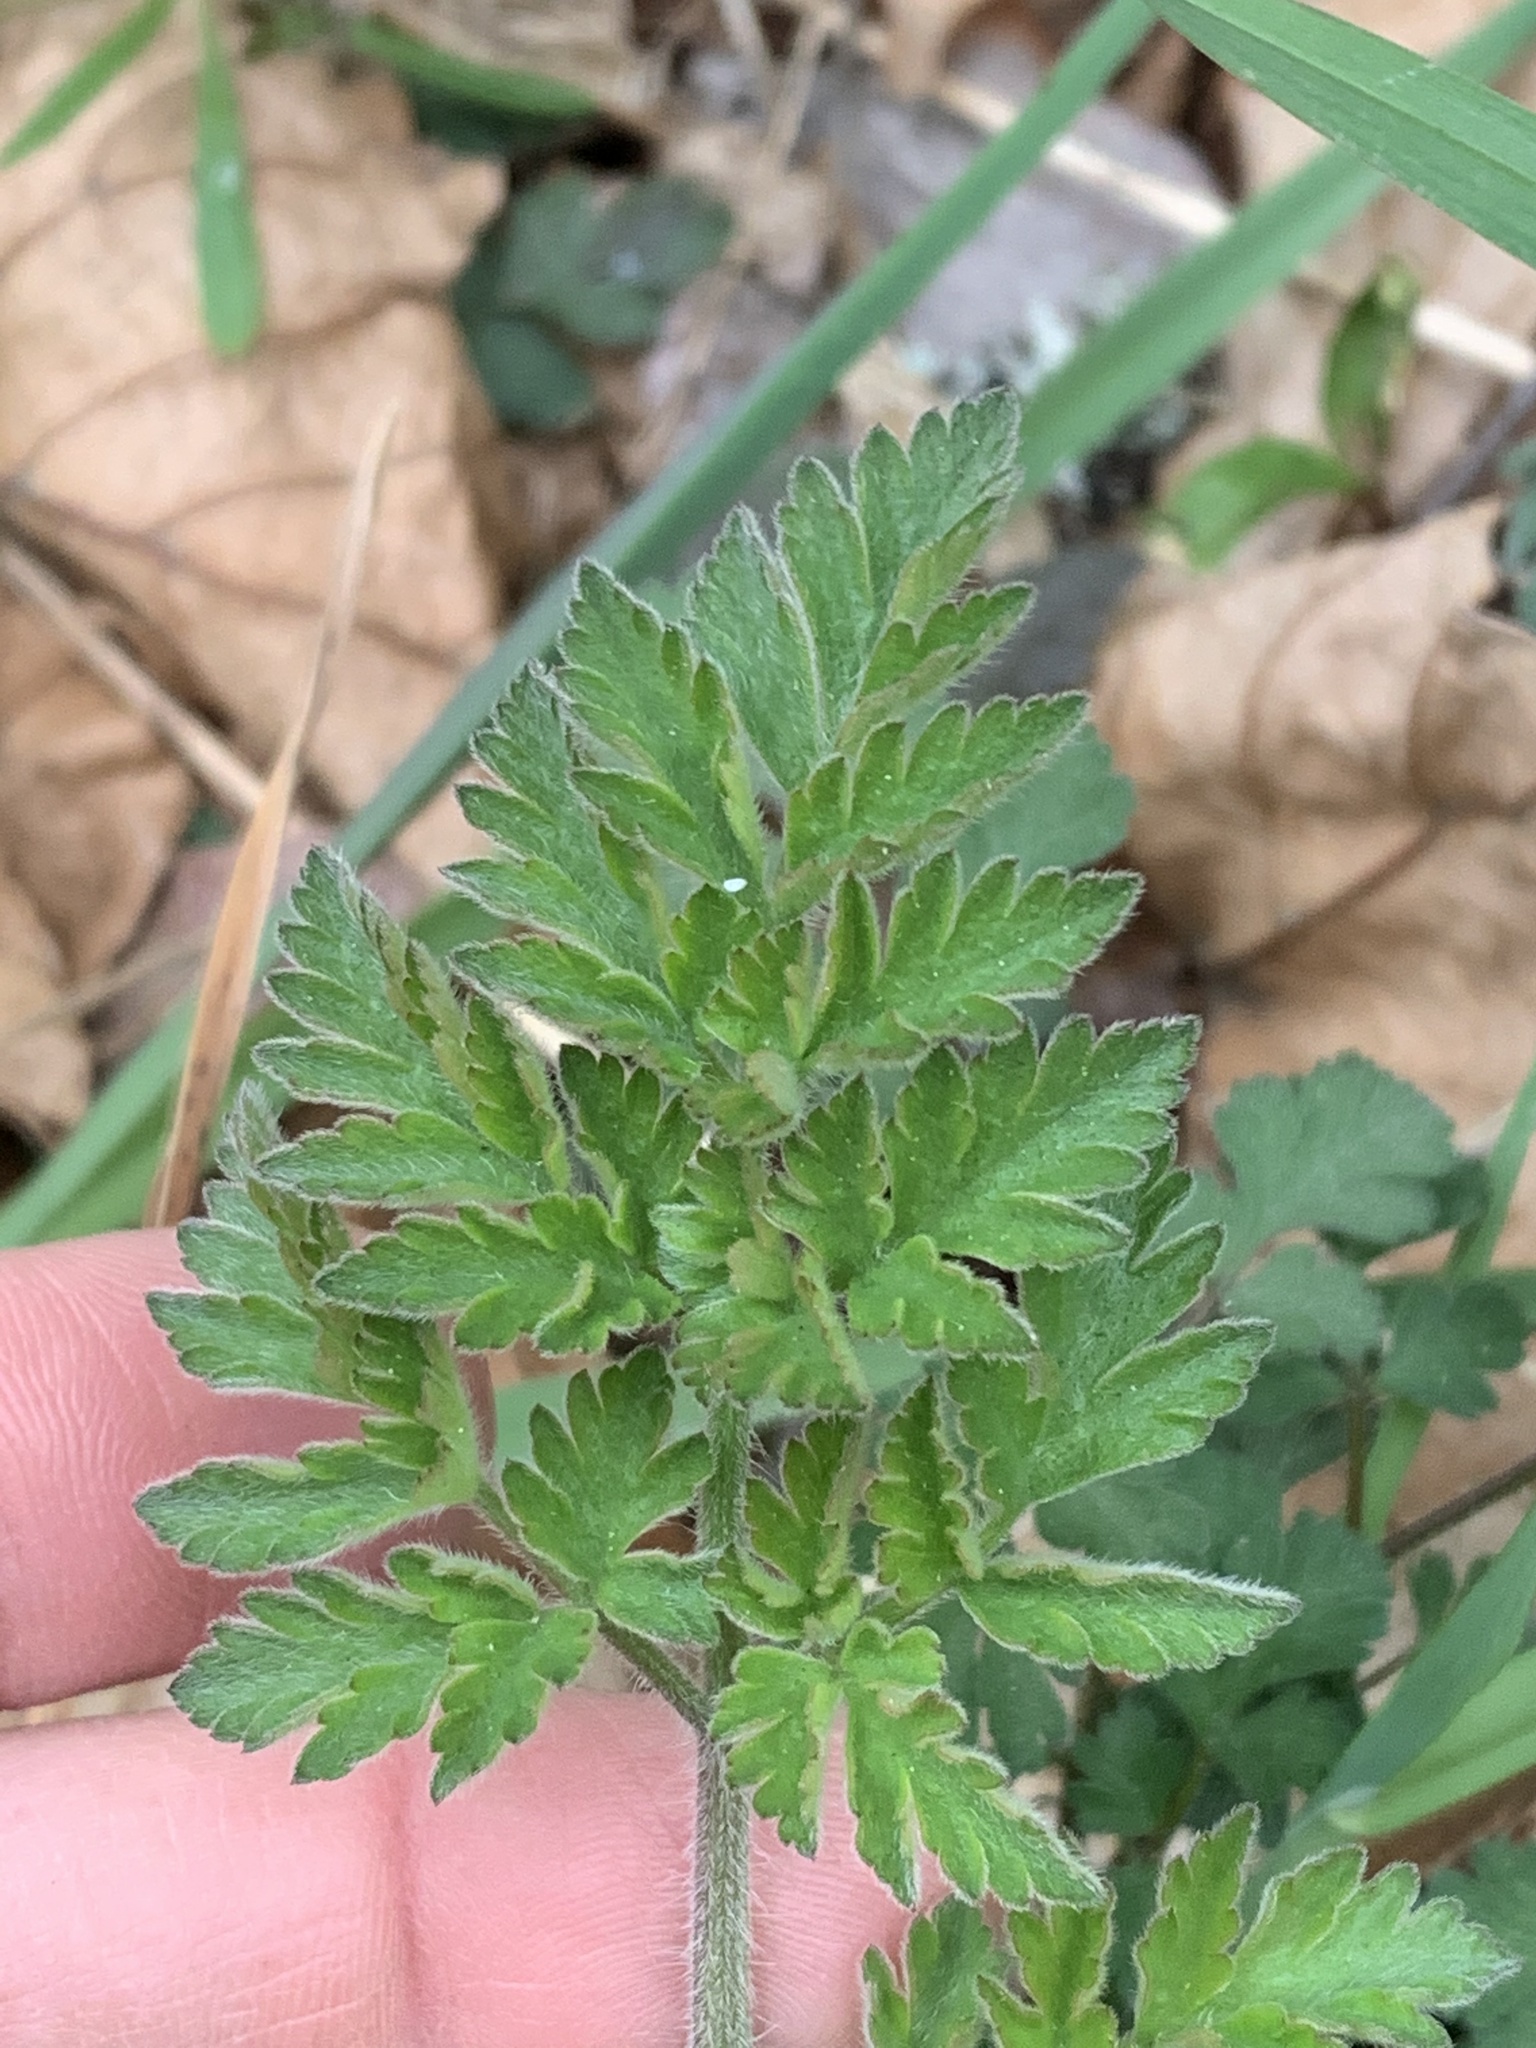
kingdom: Plantae
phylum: Tracheophyta
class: Magnoliopsida
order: Apiales
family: Apiaceae
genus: Chaerophyllum
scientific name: Chaerophyllum temulum
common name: Rough chervil
